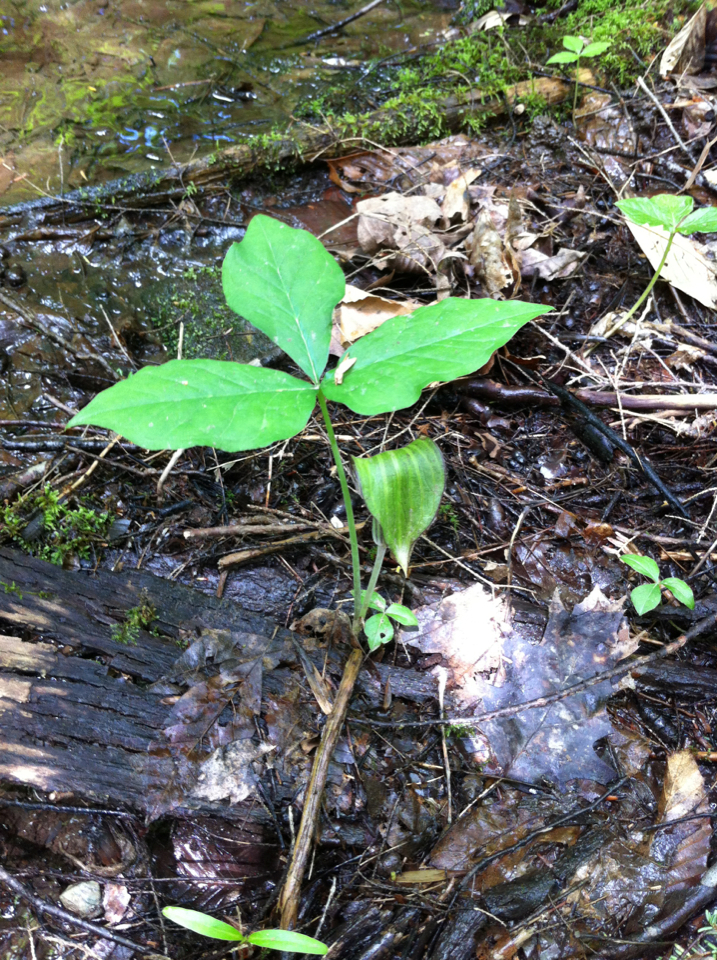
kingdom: Plantae
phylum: Tracheophyta
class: Liliopsida
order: Alismatales
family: Araceae
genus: Arisaema
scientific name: Arisaema triphyllum
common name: Jack-in-the-pulpit
